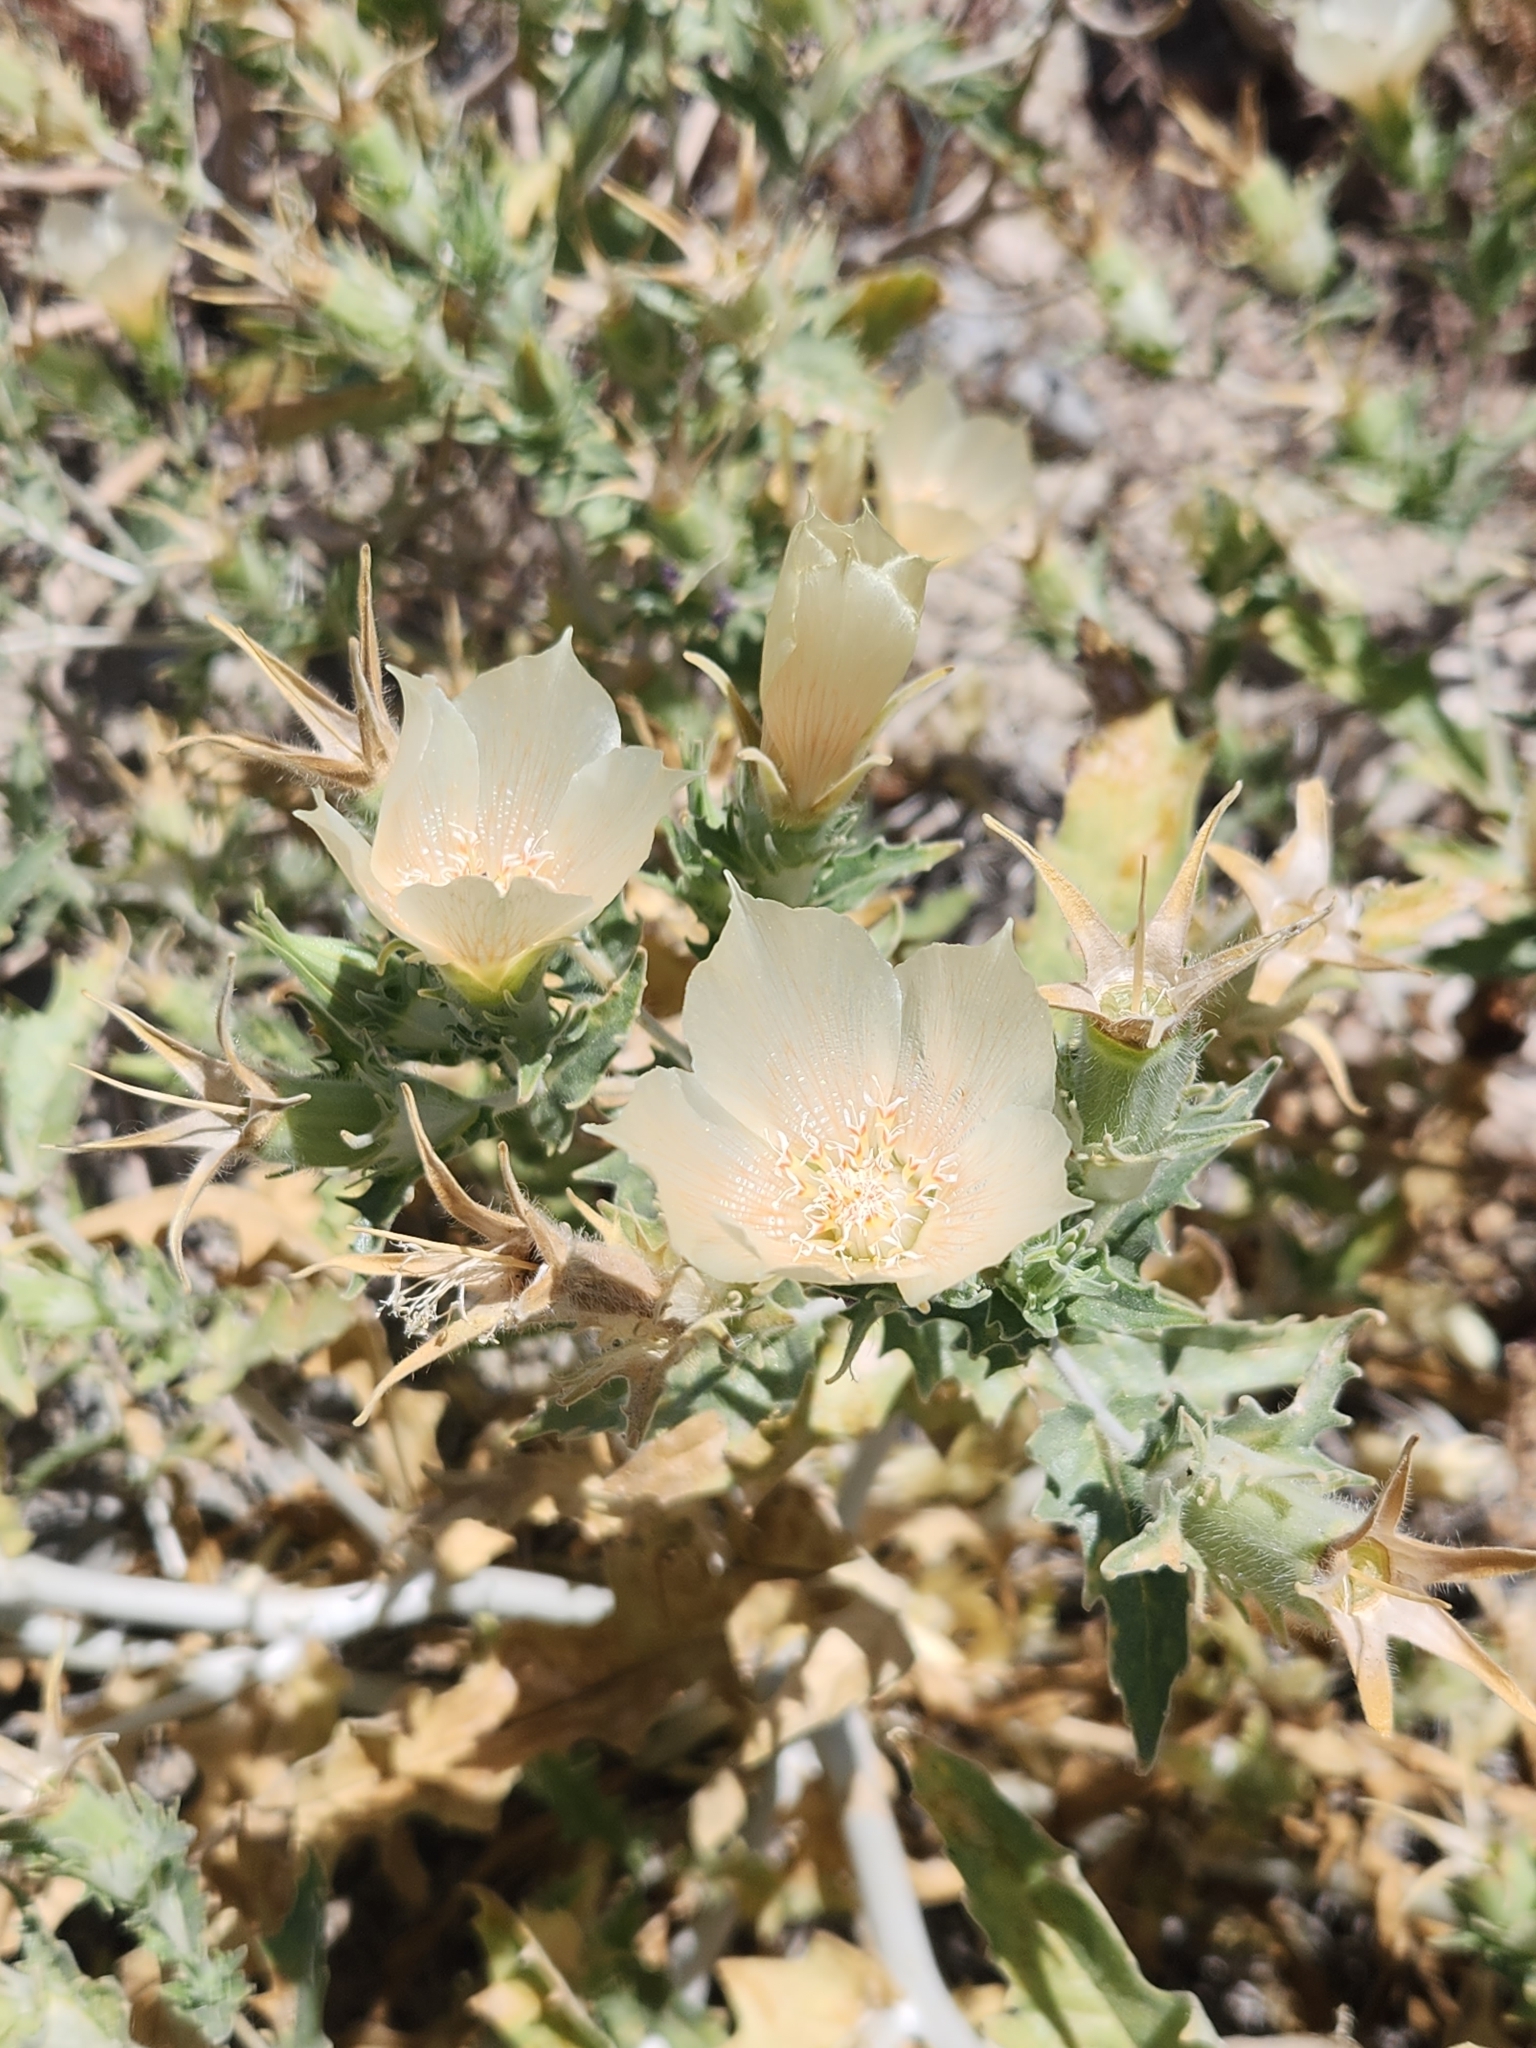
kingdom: Plantae
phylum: Tracheophyta
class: Magnoliopsida
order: Cornales
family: Loasaceae
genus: Mentzelia
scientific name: Mentzelia involucrata
